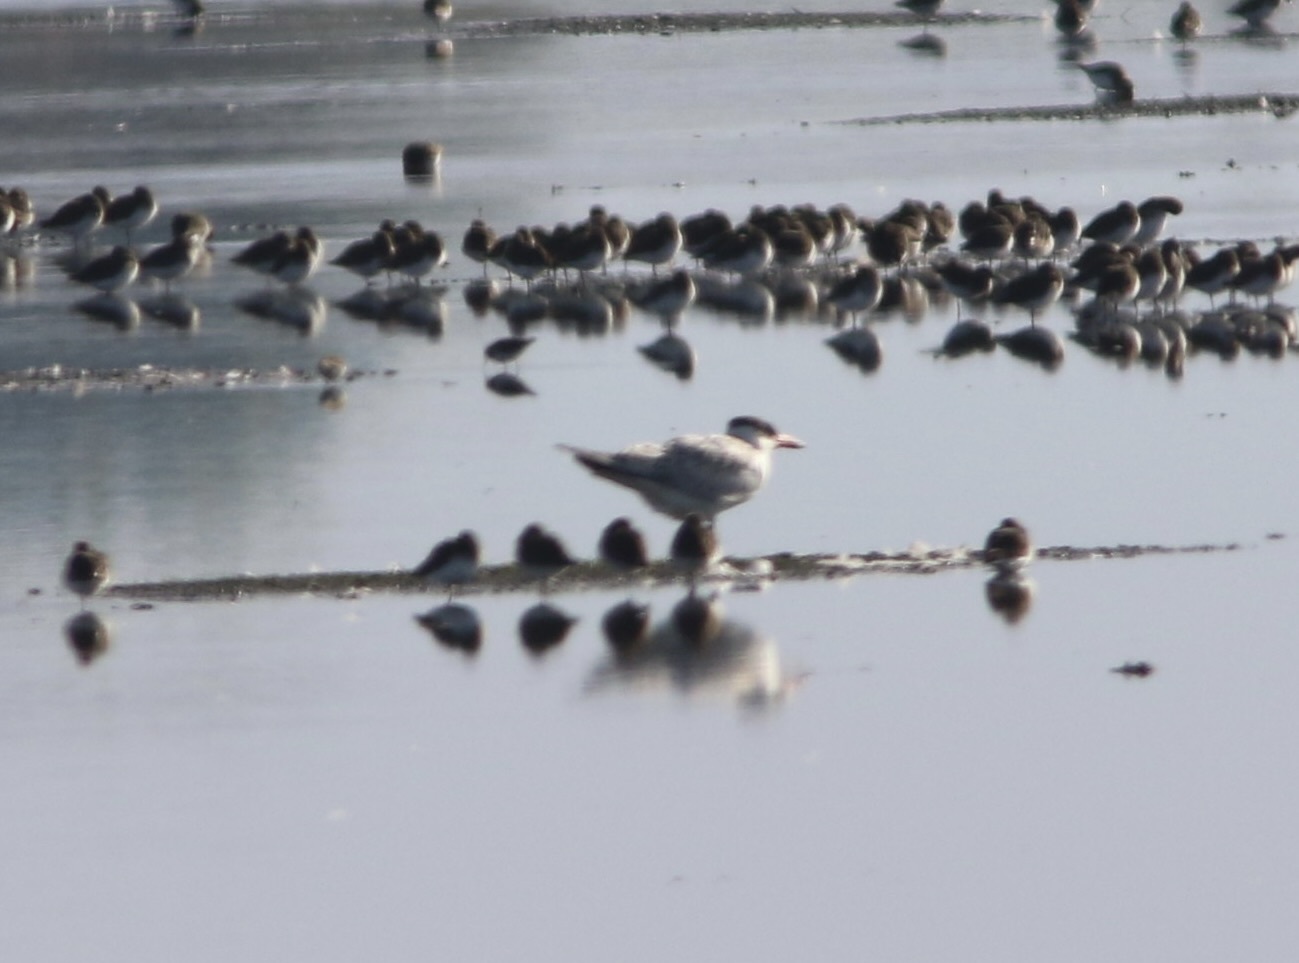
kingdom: Animalia
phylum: Chordata
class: Aves
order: Charadriiformes
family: Laridae
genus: Hydroprogne
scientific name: Hydroprogne caspia
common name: Caspian tern
